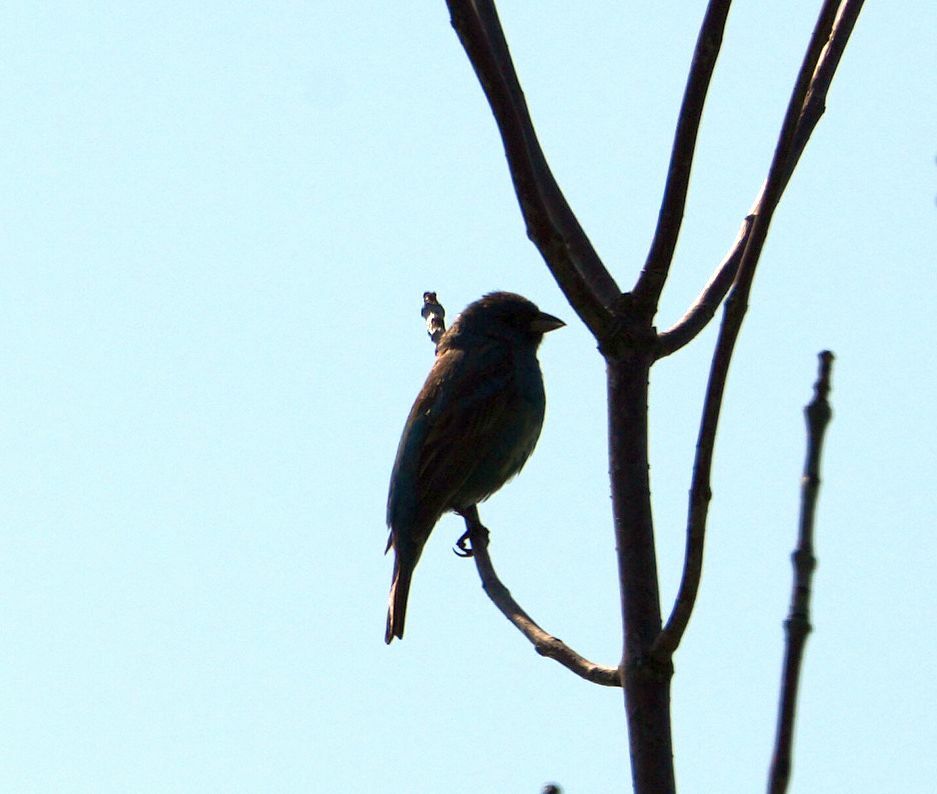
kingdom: Animalia
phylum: Chordata
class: Aves
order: Passeriformes
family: Cardinalidae
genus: Passerina
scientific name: Passerina cyanea
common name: Indigo bunting
